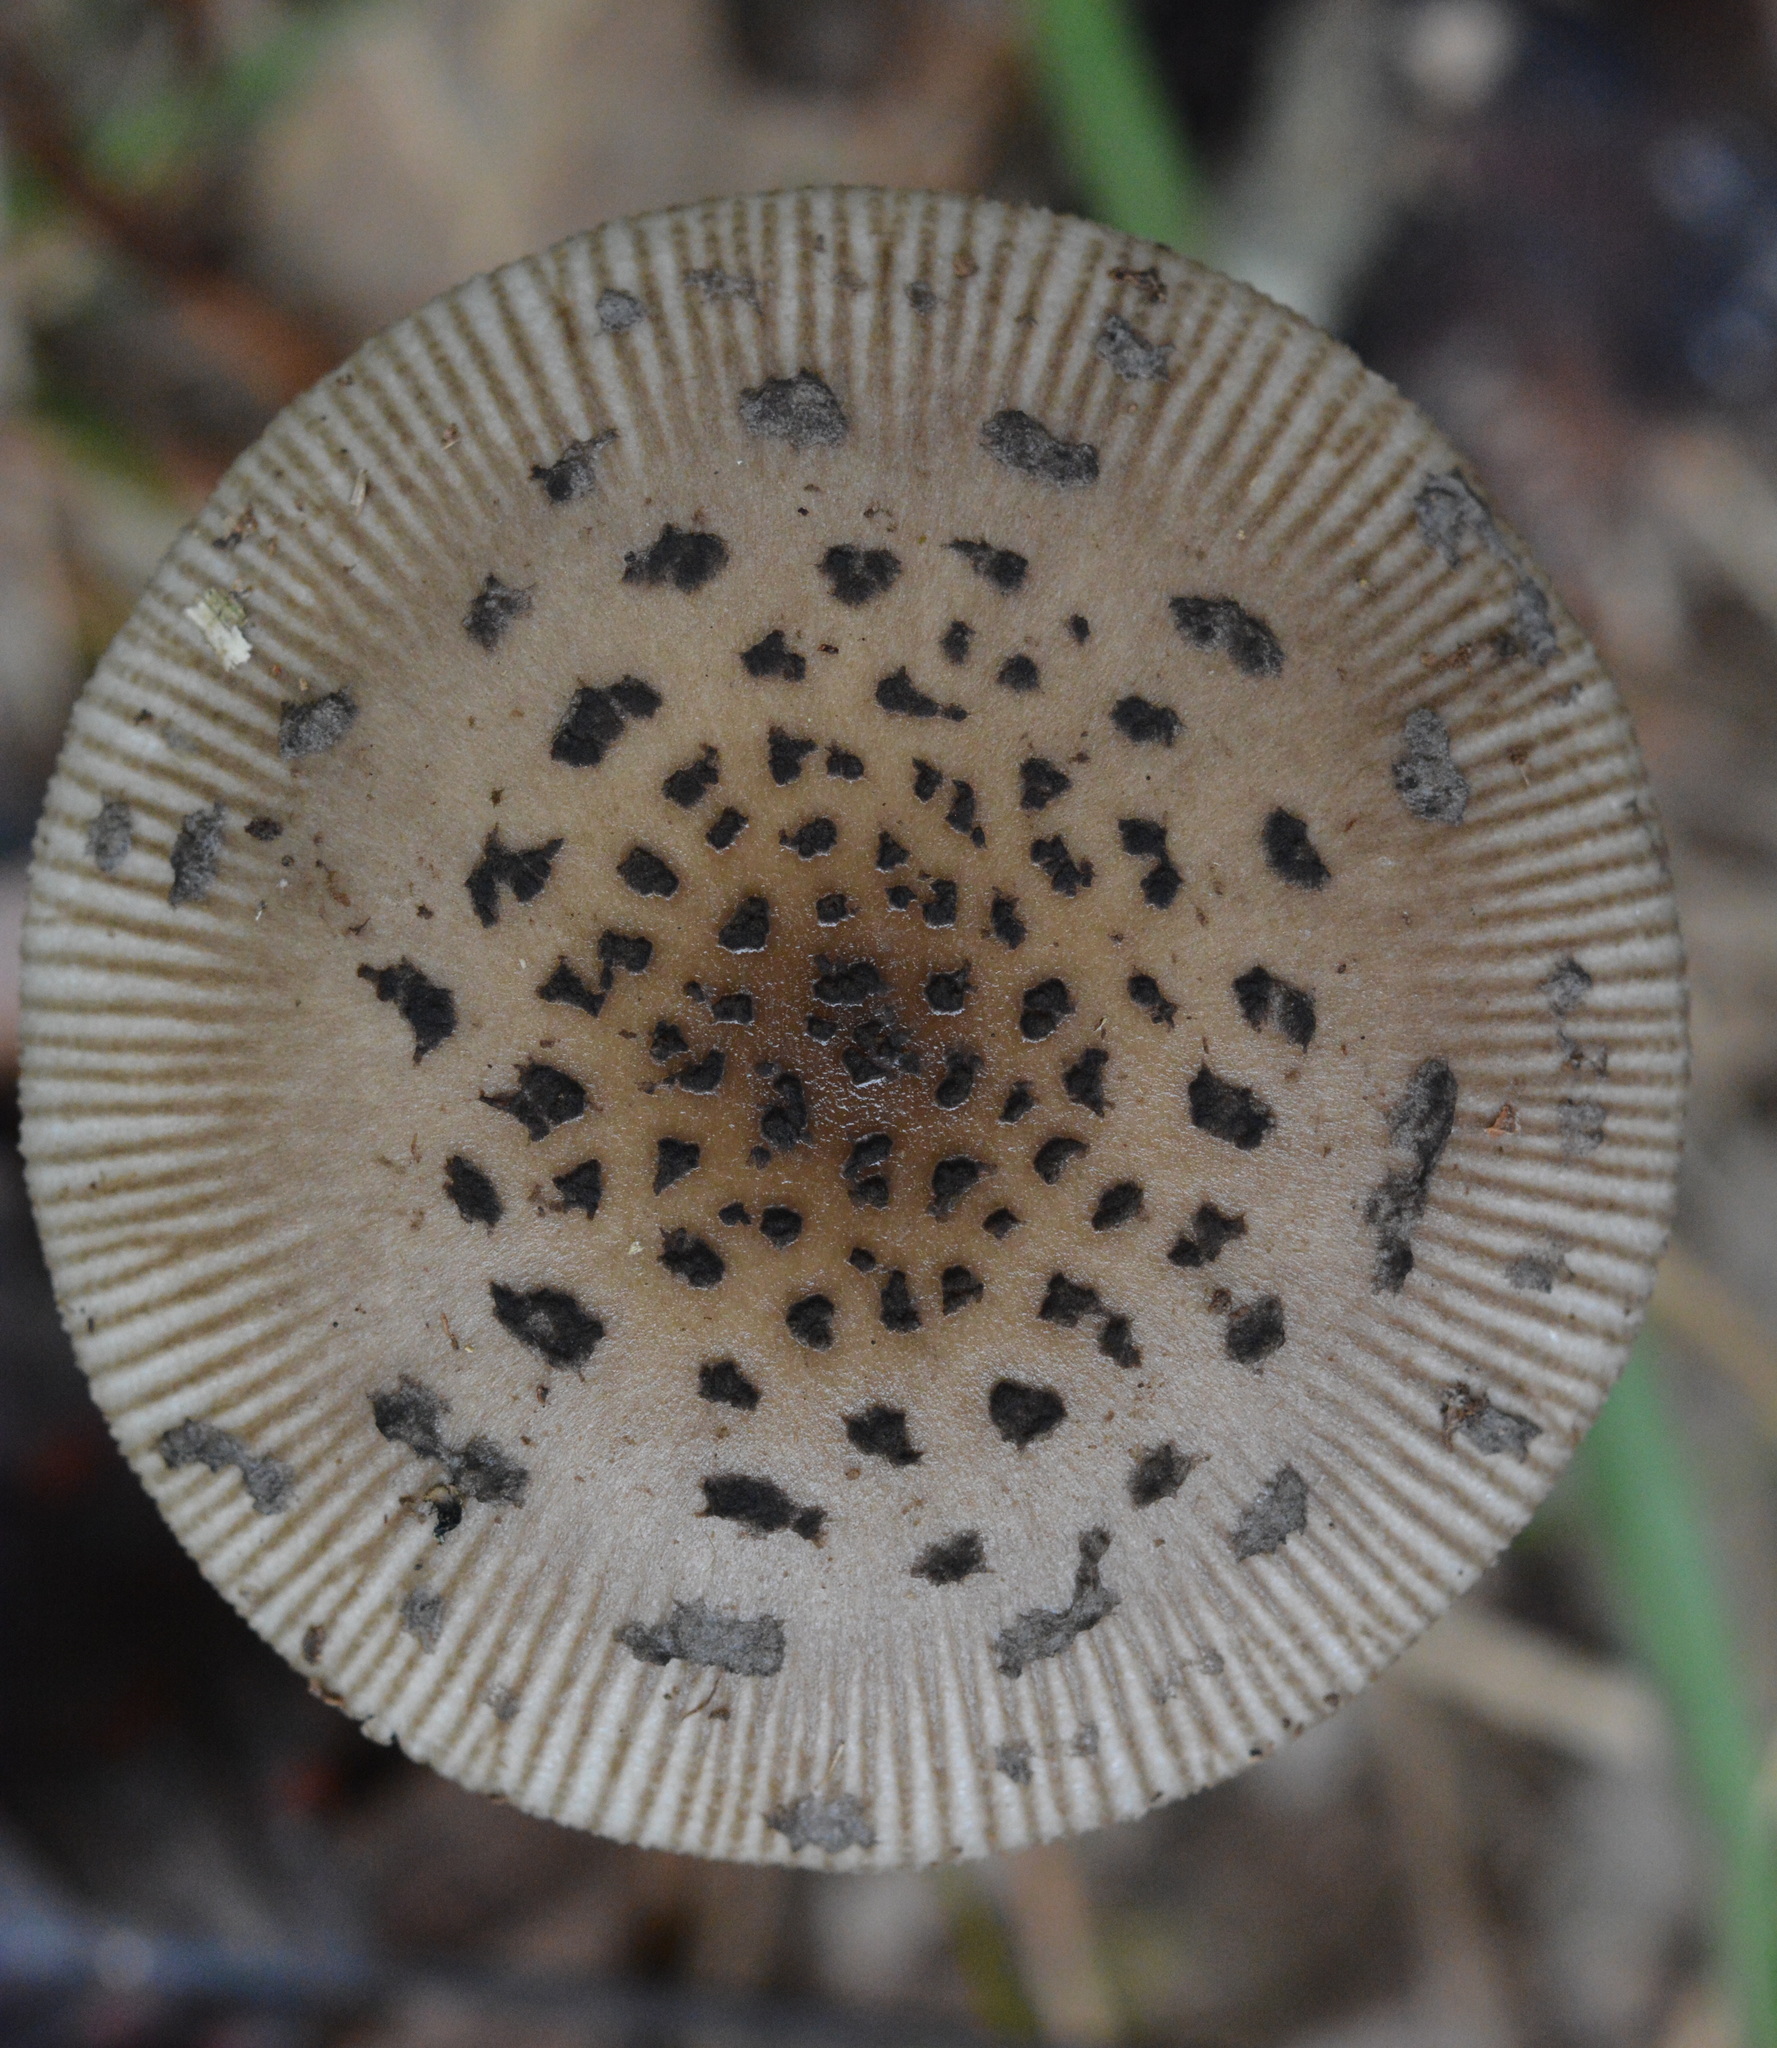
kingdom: Fungi
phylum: Basidiomycota
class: Agaricomycetes
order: Agaricales
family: Amanitaceae
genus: Amanita
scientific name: Amanita rhacopus
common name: Shaggy legged ringless amanita
